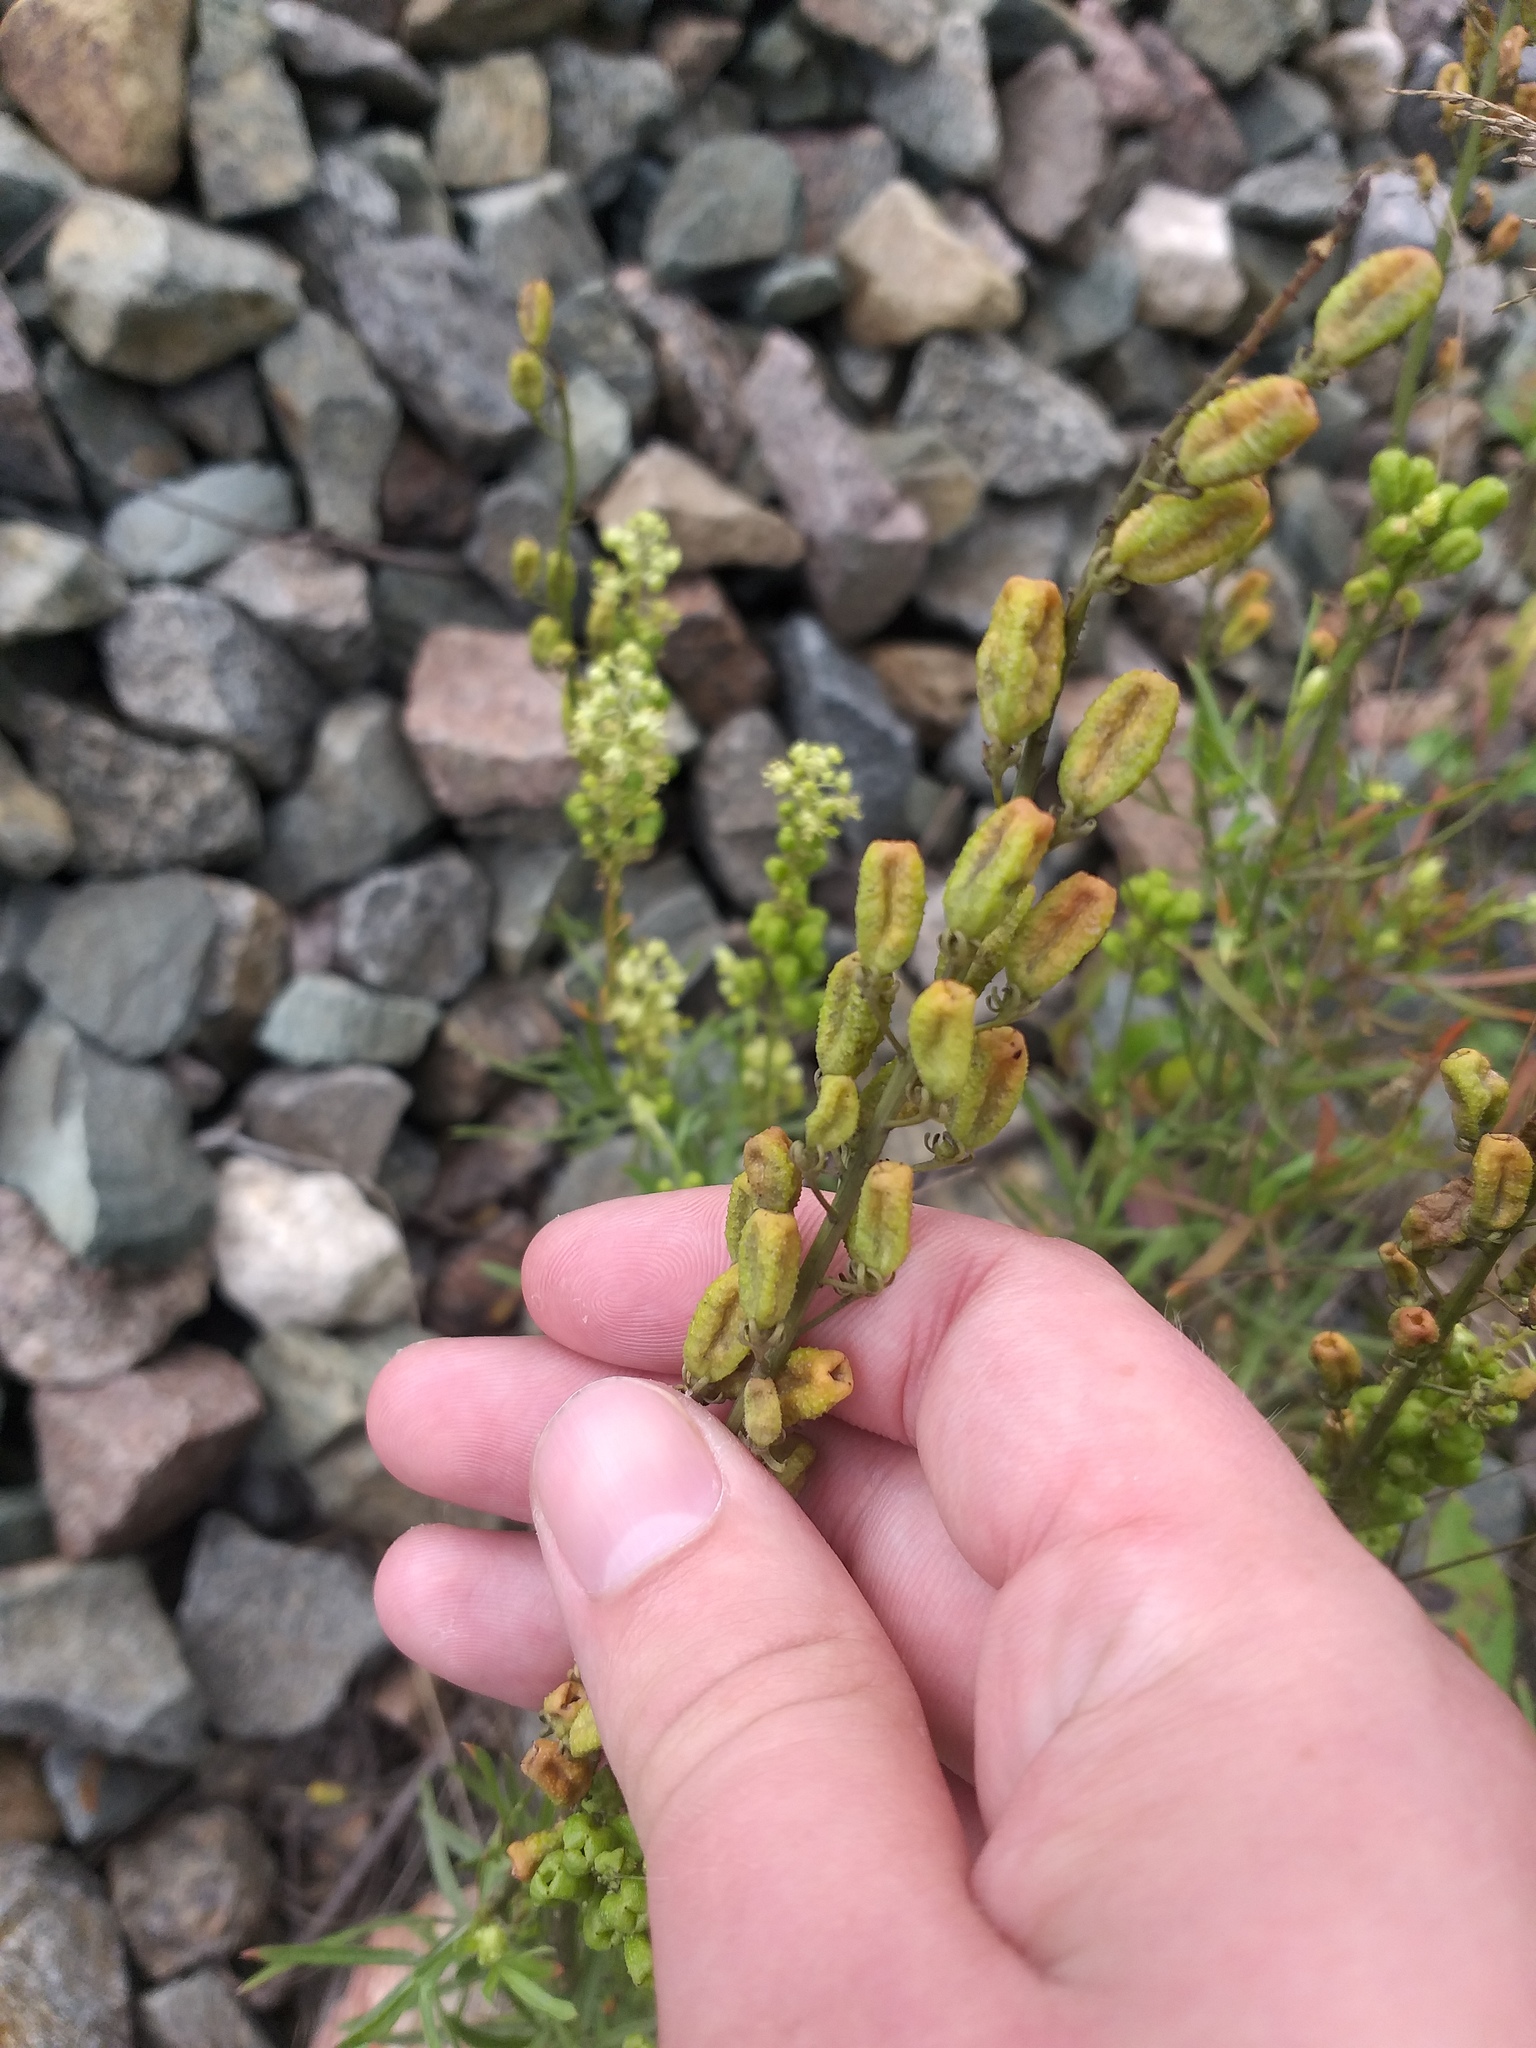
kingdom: Plantae
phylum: Tracheophyta
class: Magnoliopsida
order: Brassicales
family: Resedaceae
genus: Reseda
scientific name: Reseda lutea
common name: Wild mignonette
